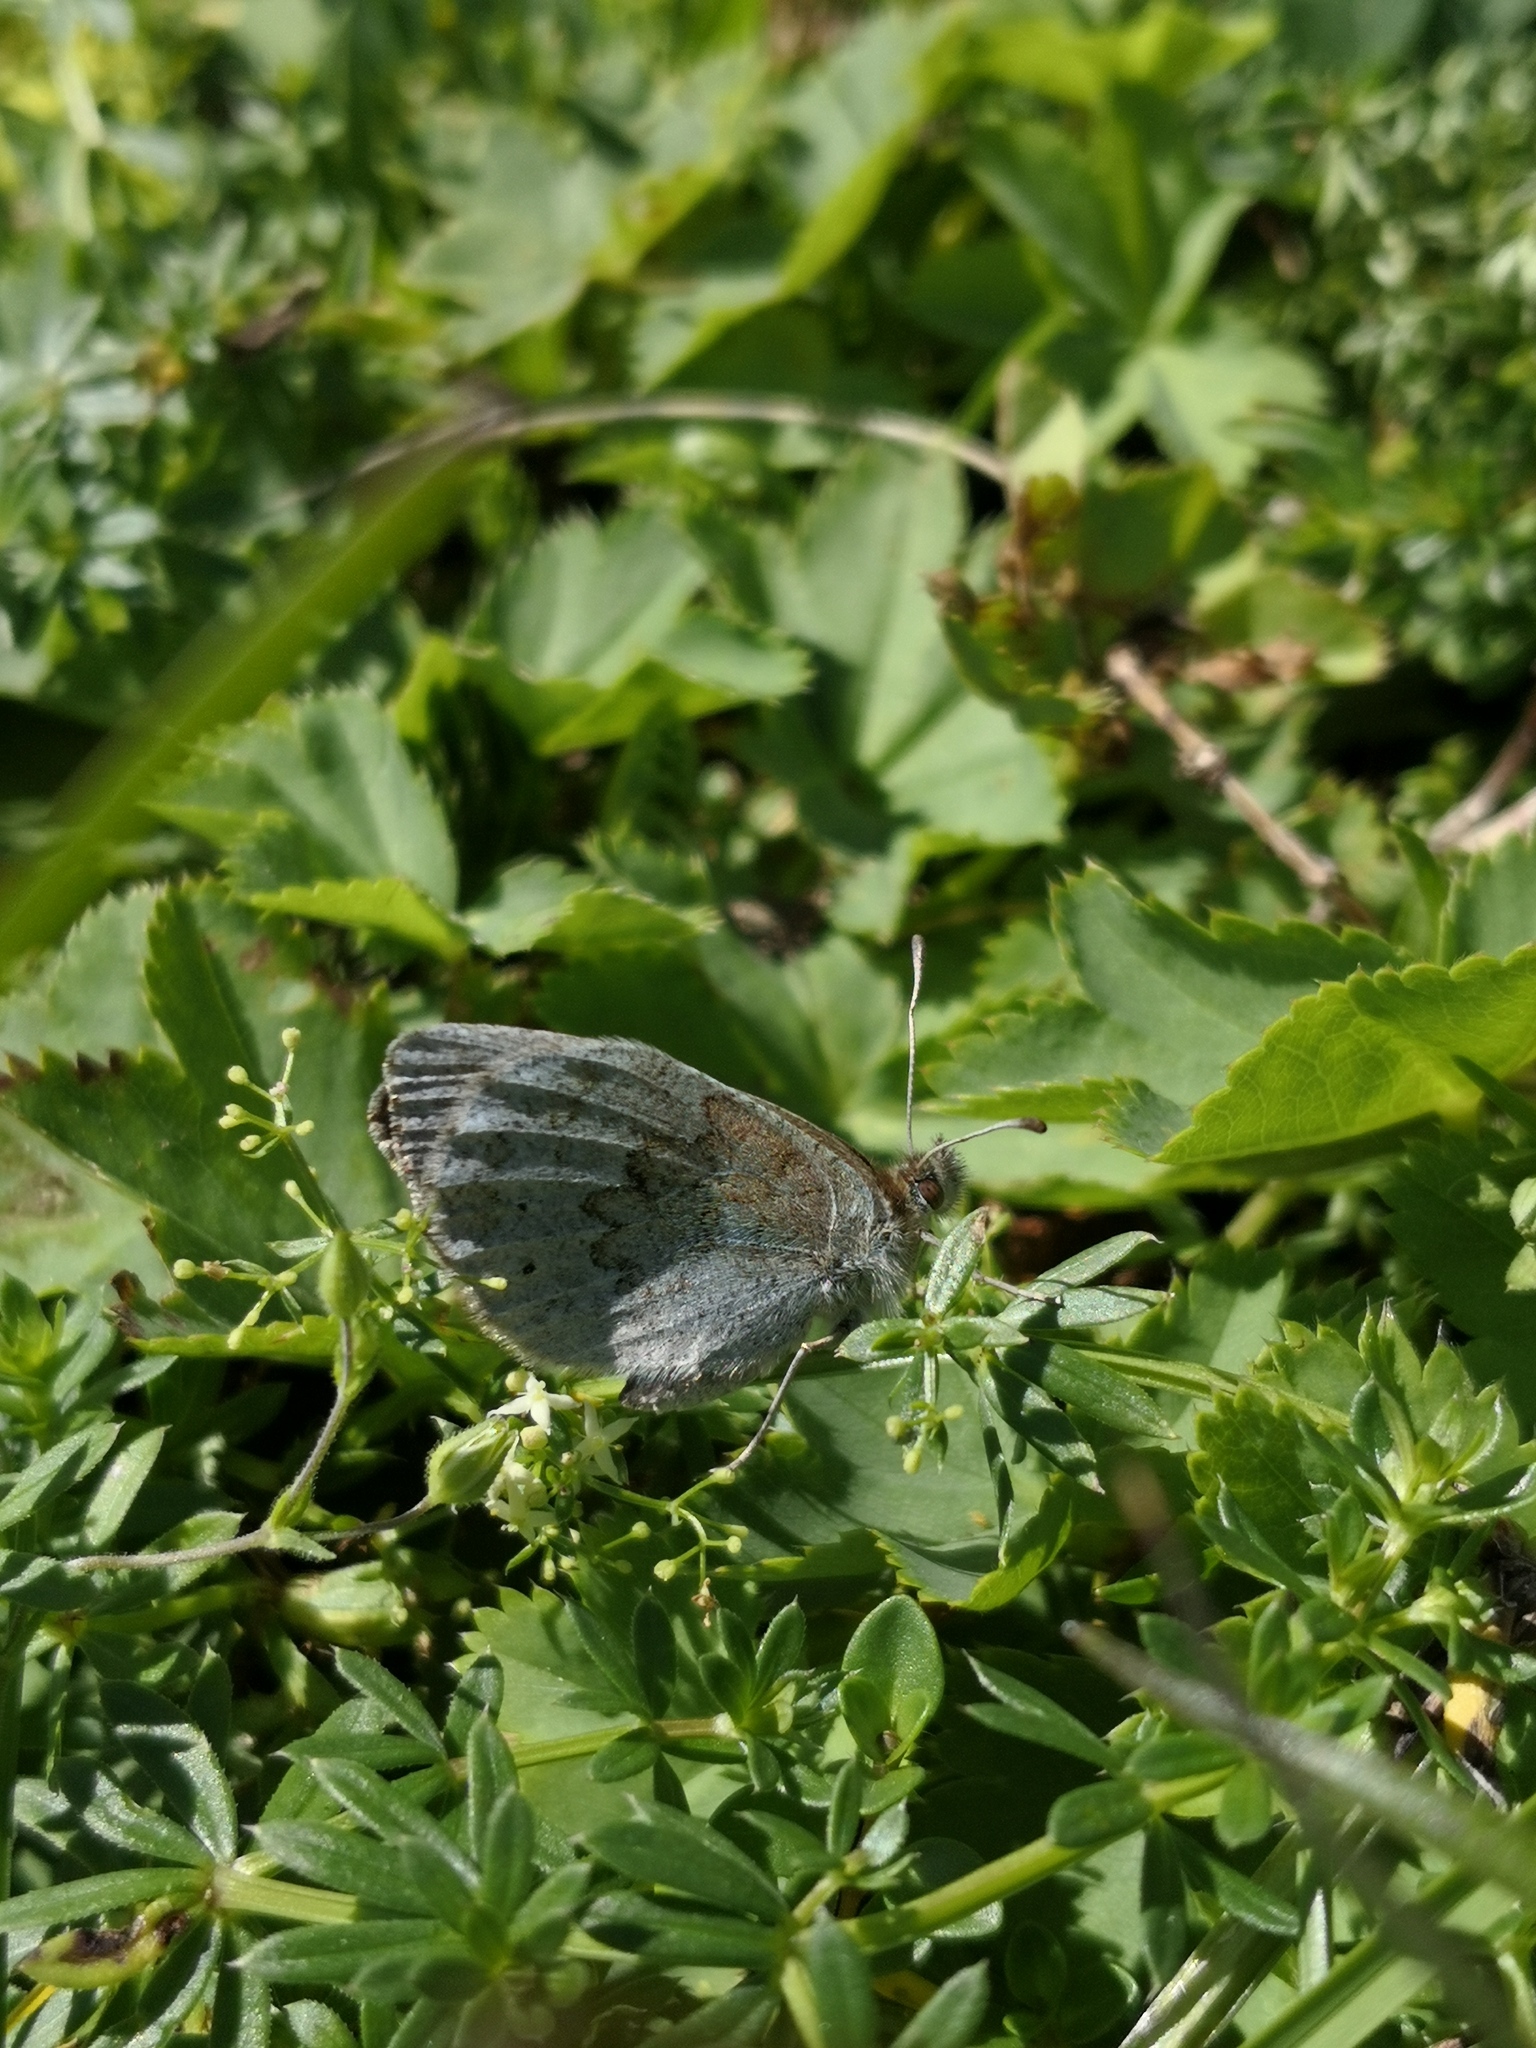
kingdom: Animalia
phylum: Arthropoda
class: Insecta
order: Lepidoptera
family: Nymphalidae
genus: Erebia
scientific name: Erebia cassioides
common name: Common brassy ringlet
